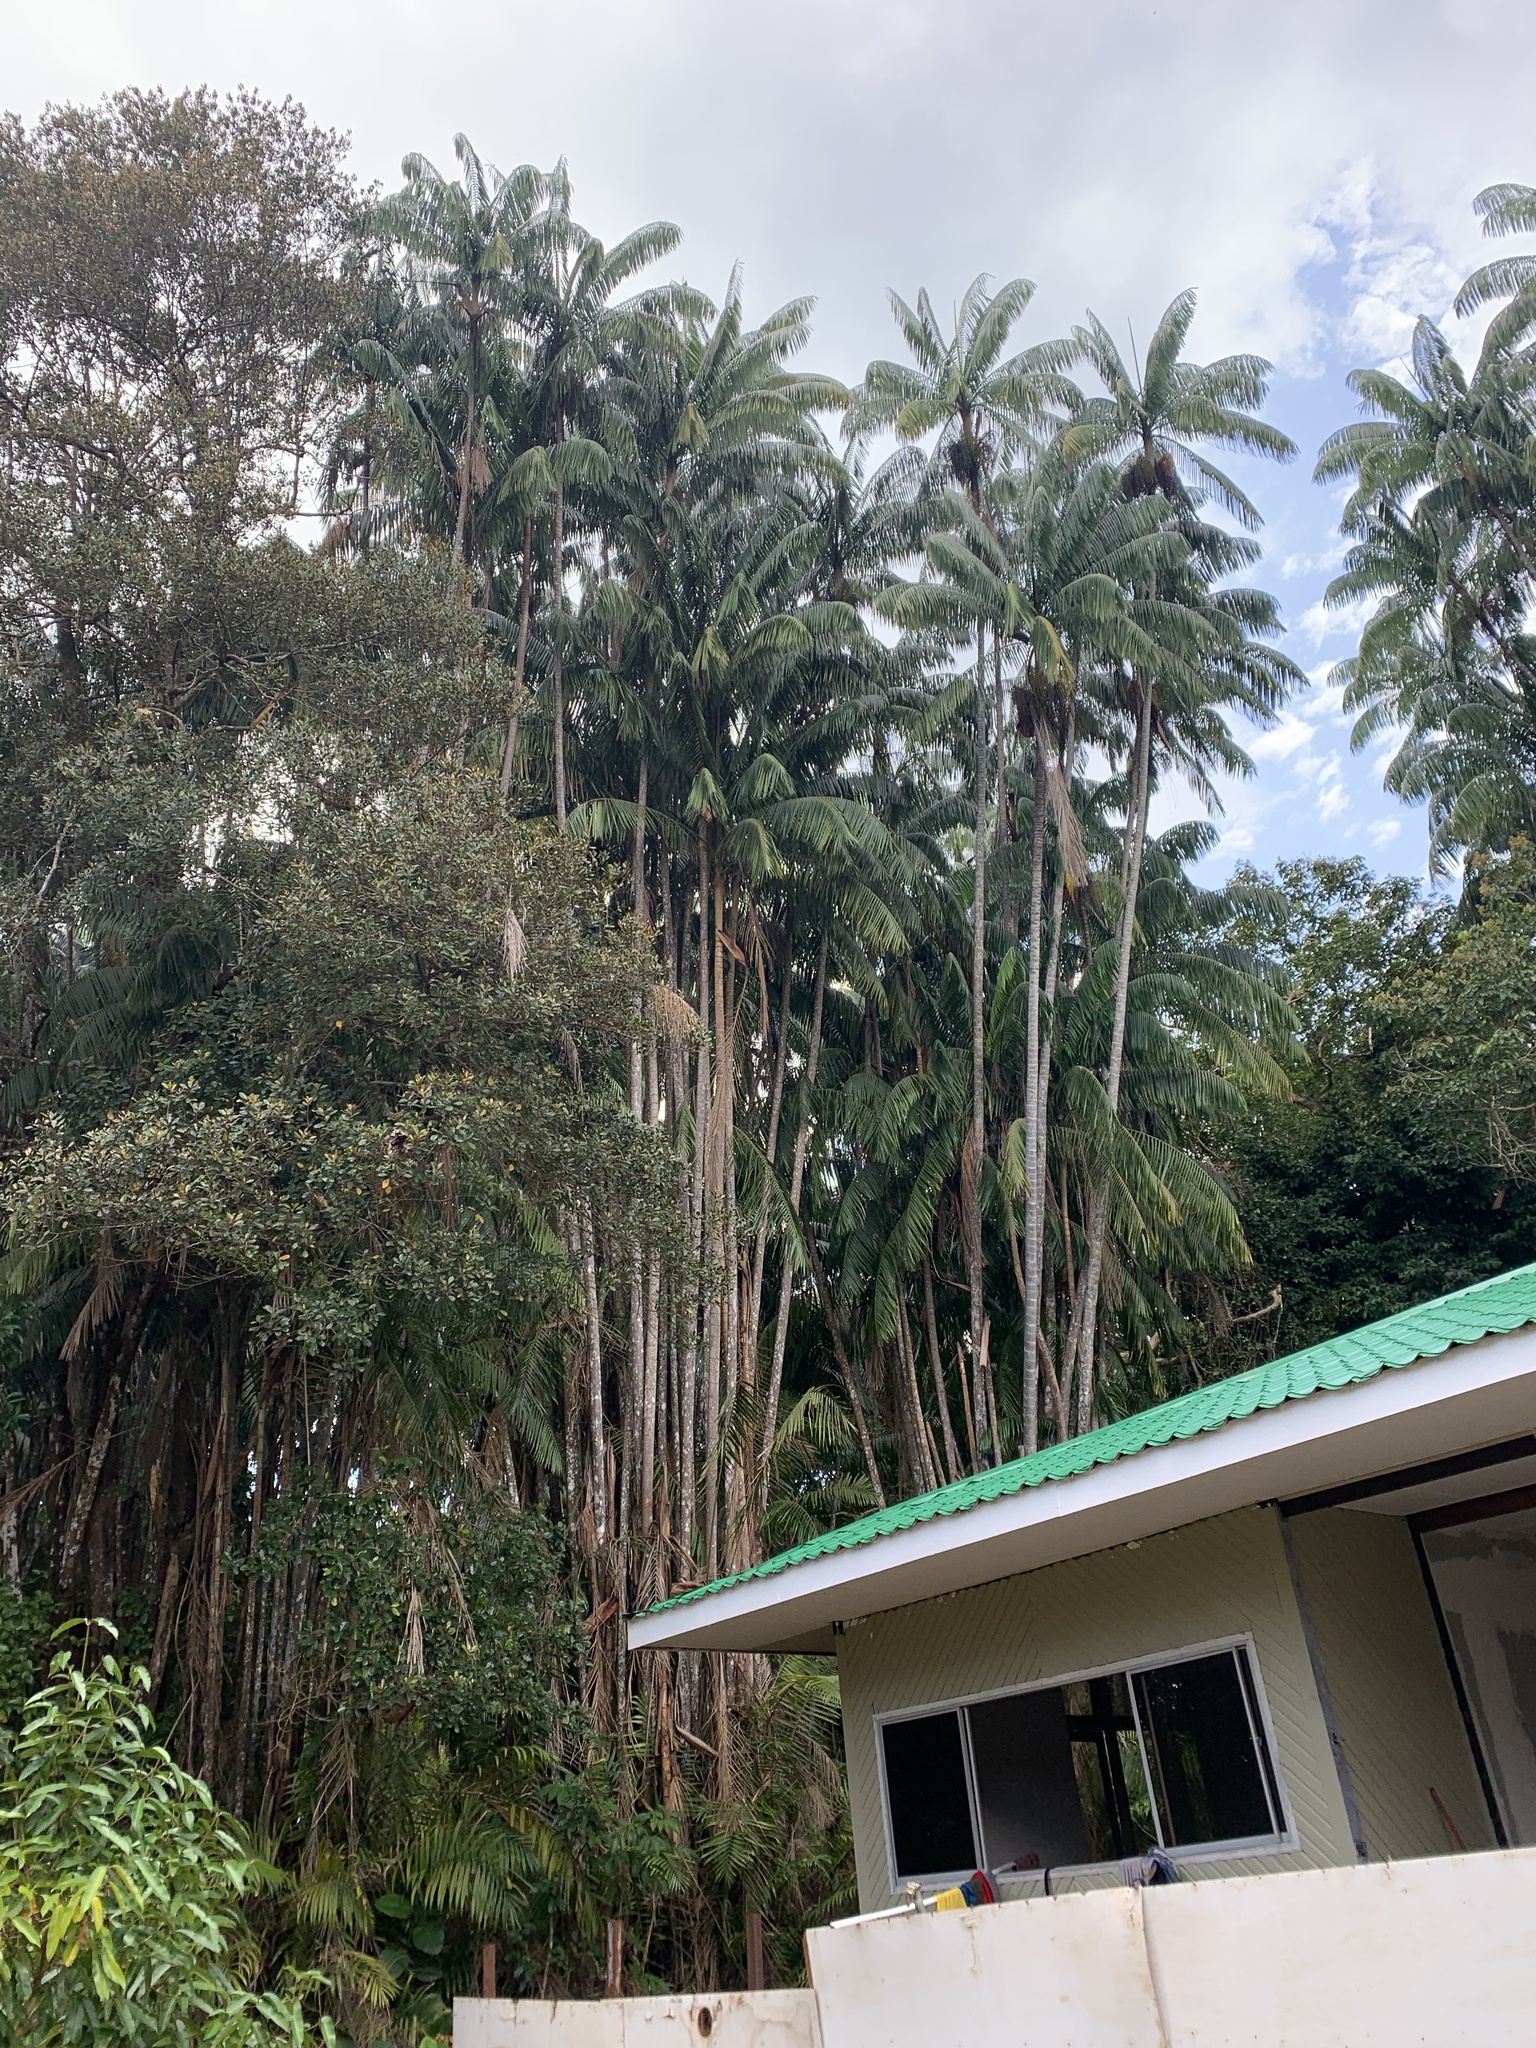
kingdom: Plantae
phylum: Tracheophyta
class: Liliopsida
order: Arecales
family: Arecaceae
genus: Oncosperma
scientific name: Oncosperma tigillarium
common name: Nibong
